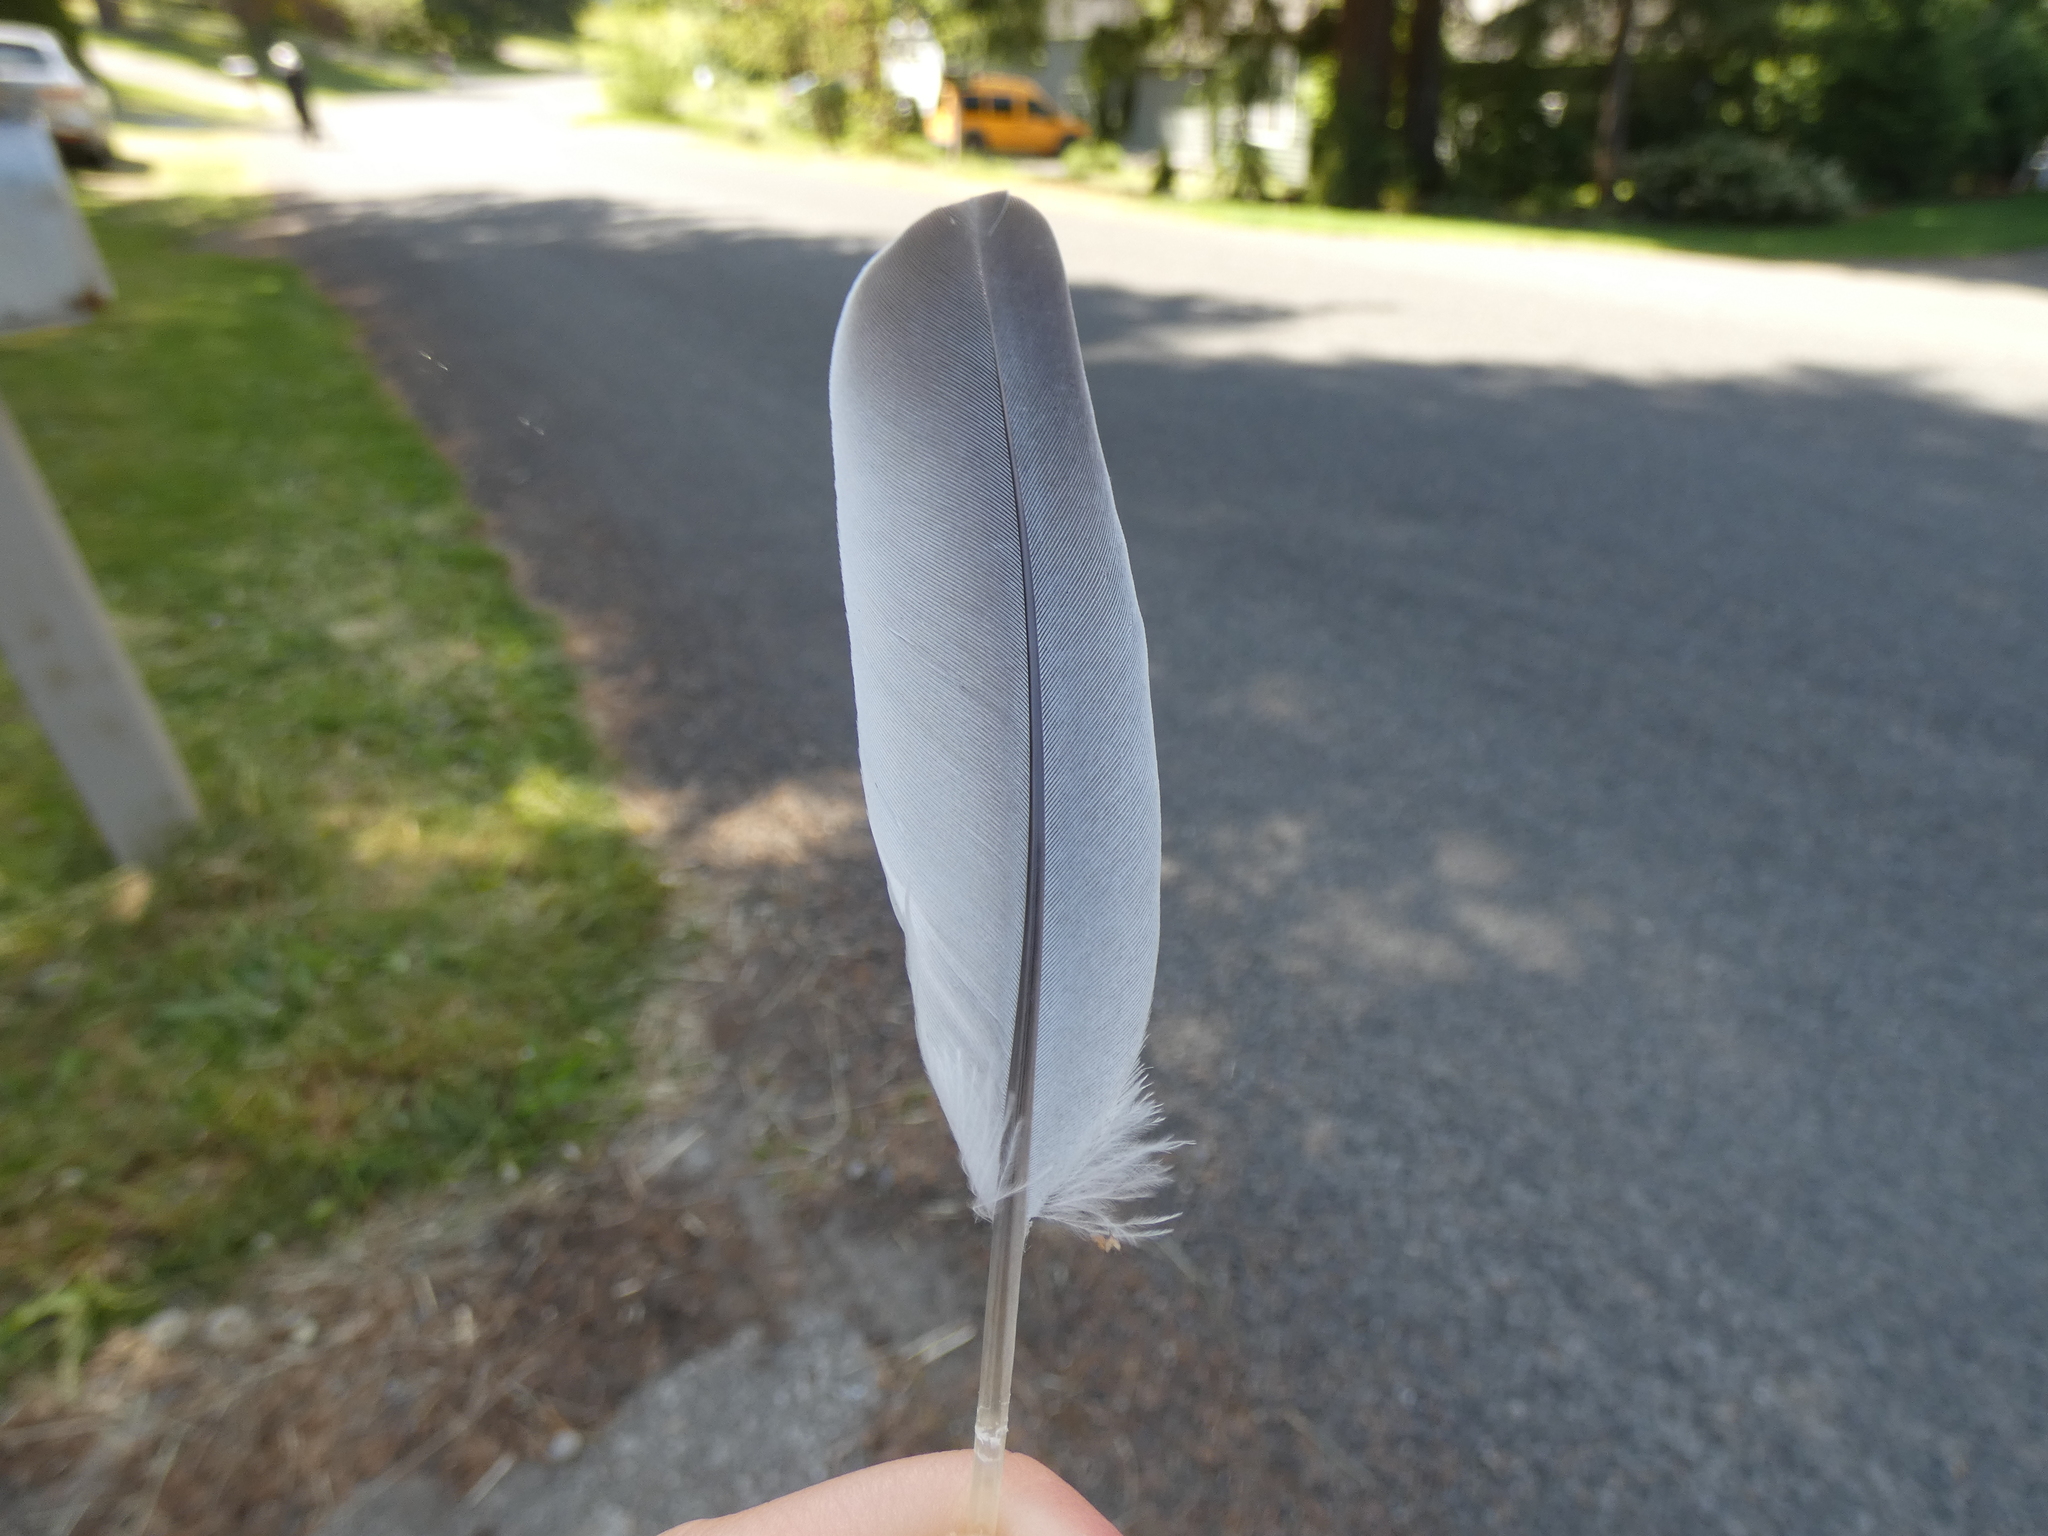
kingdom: Animalia
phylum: Chordata
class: Aves
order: Columbiformes
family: Columbidae
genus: Streptopelia
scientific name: Streptopelia decaocto
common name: Eurasian collared dove
